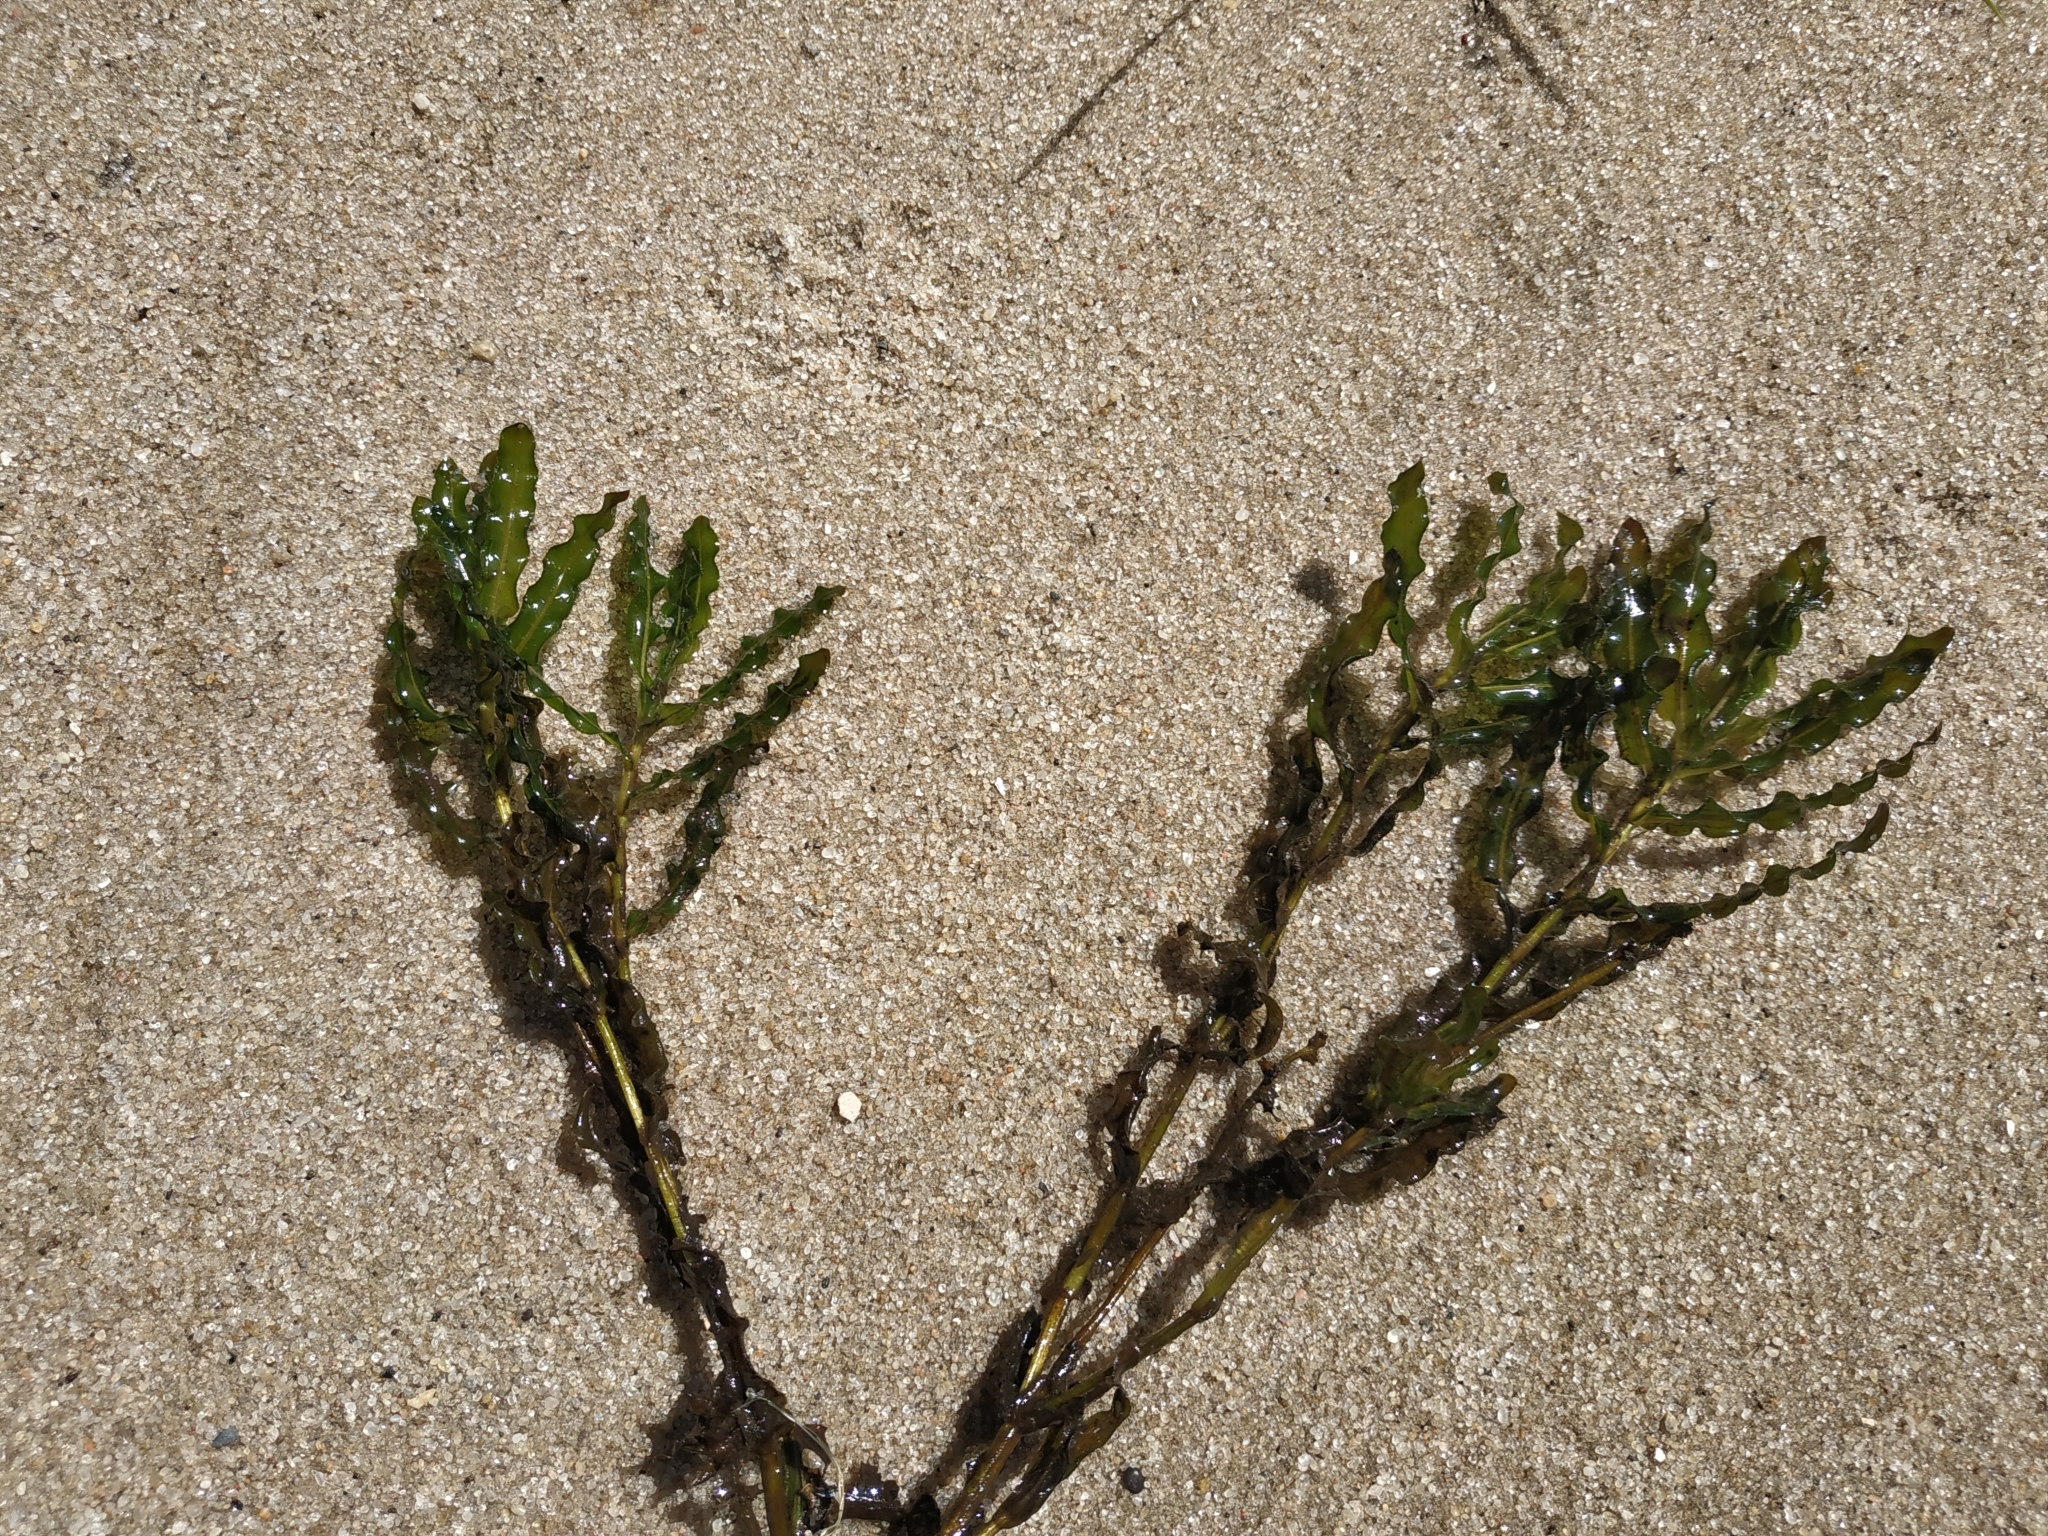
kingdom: Plantae
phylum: Tracheophyta
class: Liliopsida
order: Alismatales
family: Potamogetonaceae
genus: Potamogeton
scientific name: Potamogeton crispus
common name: Curled pondweed
